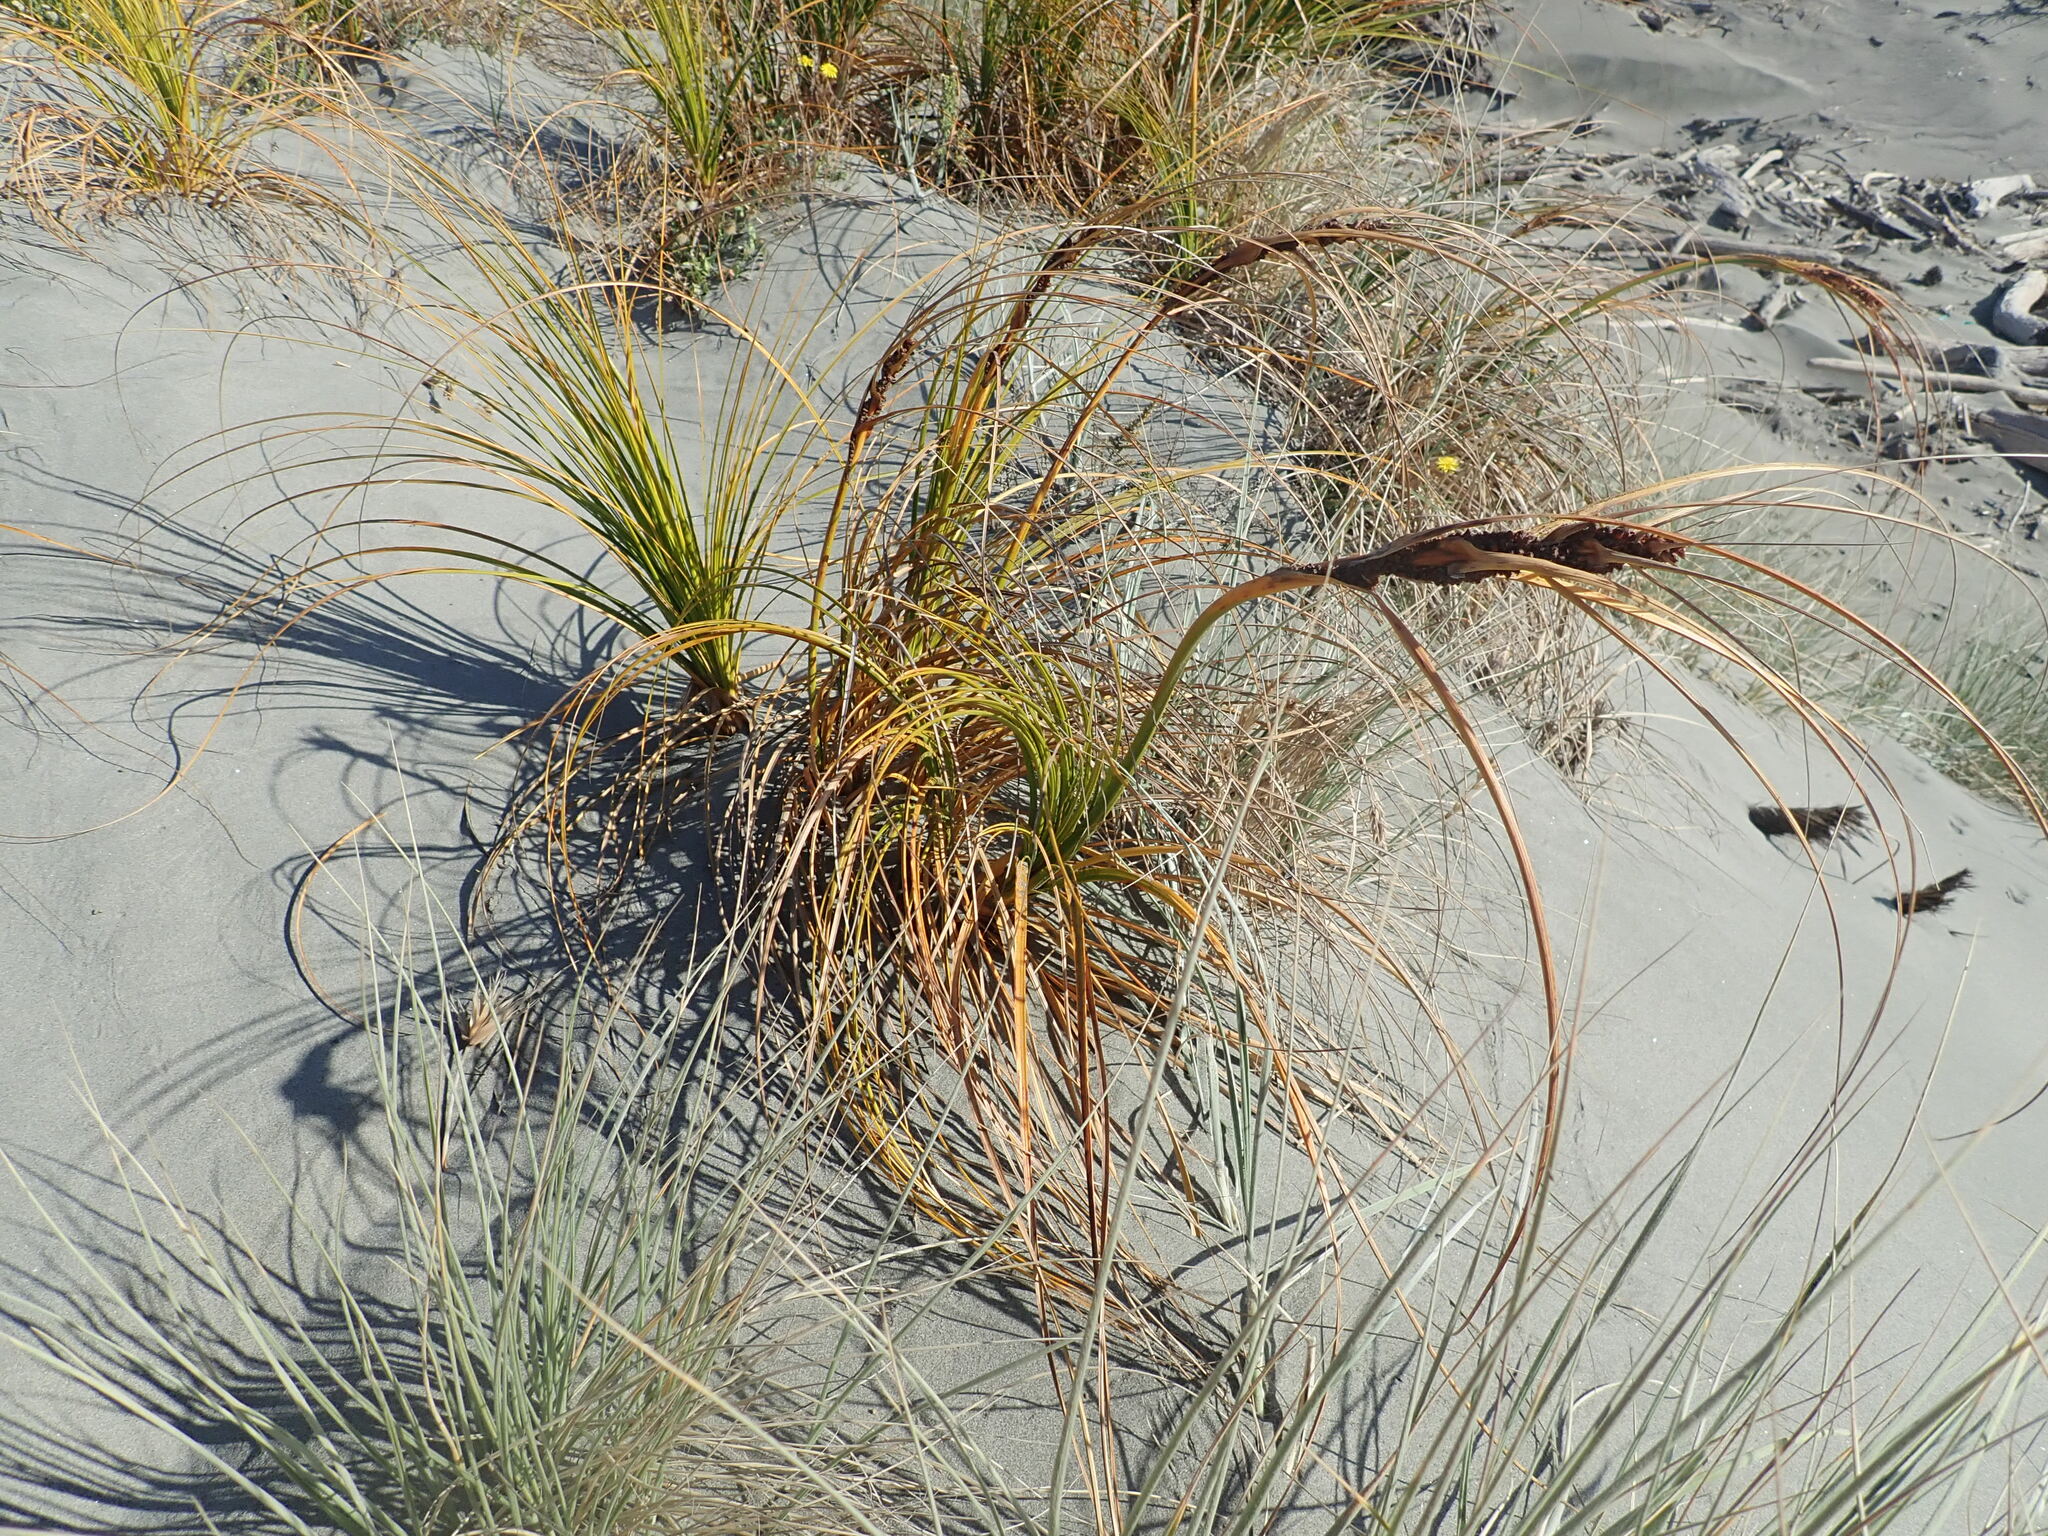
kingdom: Plantae
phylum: Tracheophyta
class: Liliopsida
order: Poales
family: Cyperaceae
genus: Ficinia
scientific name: Ficinia spiralis
